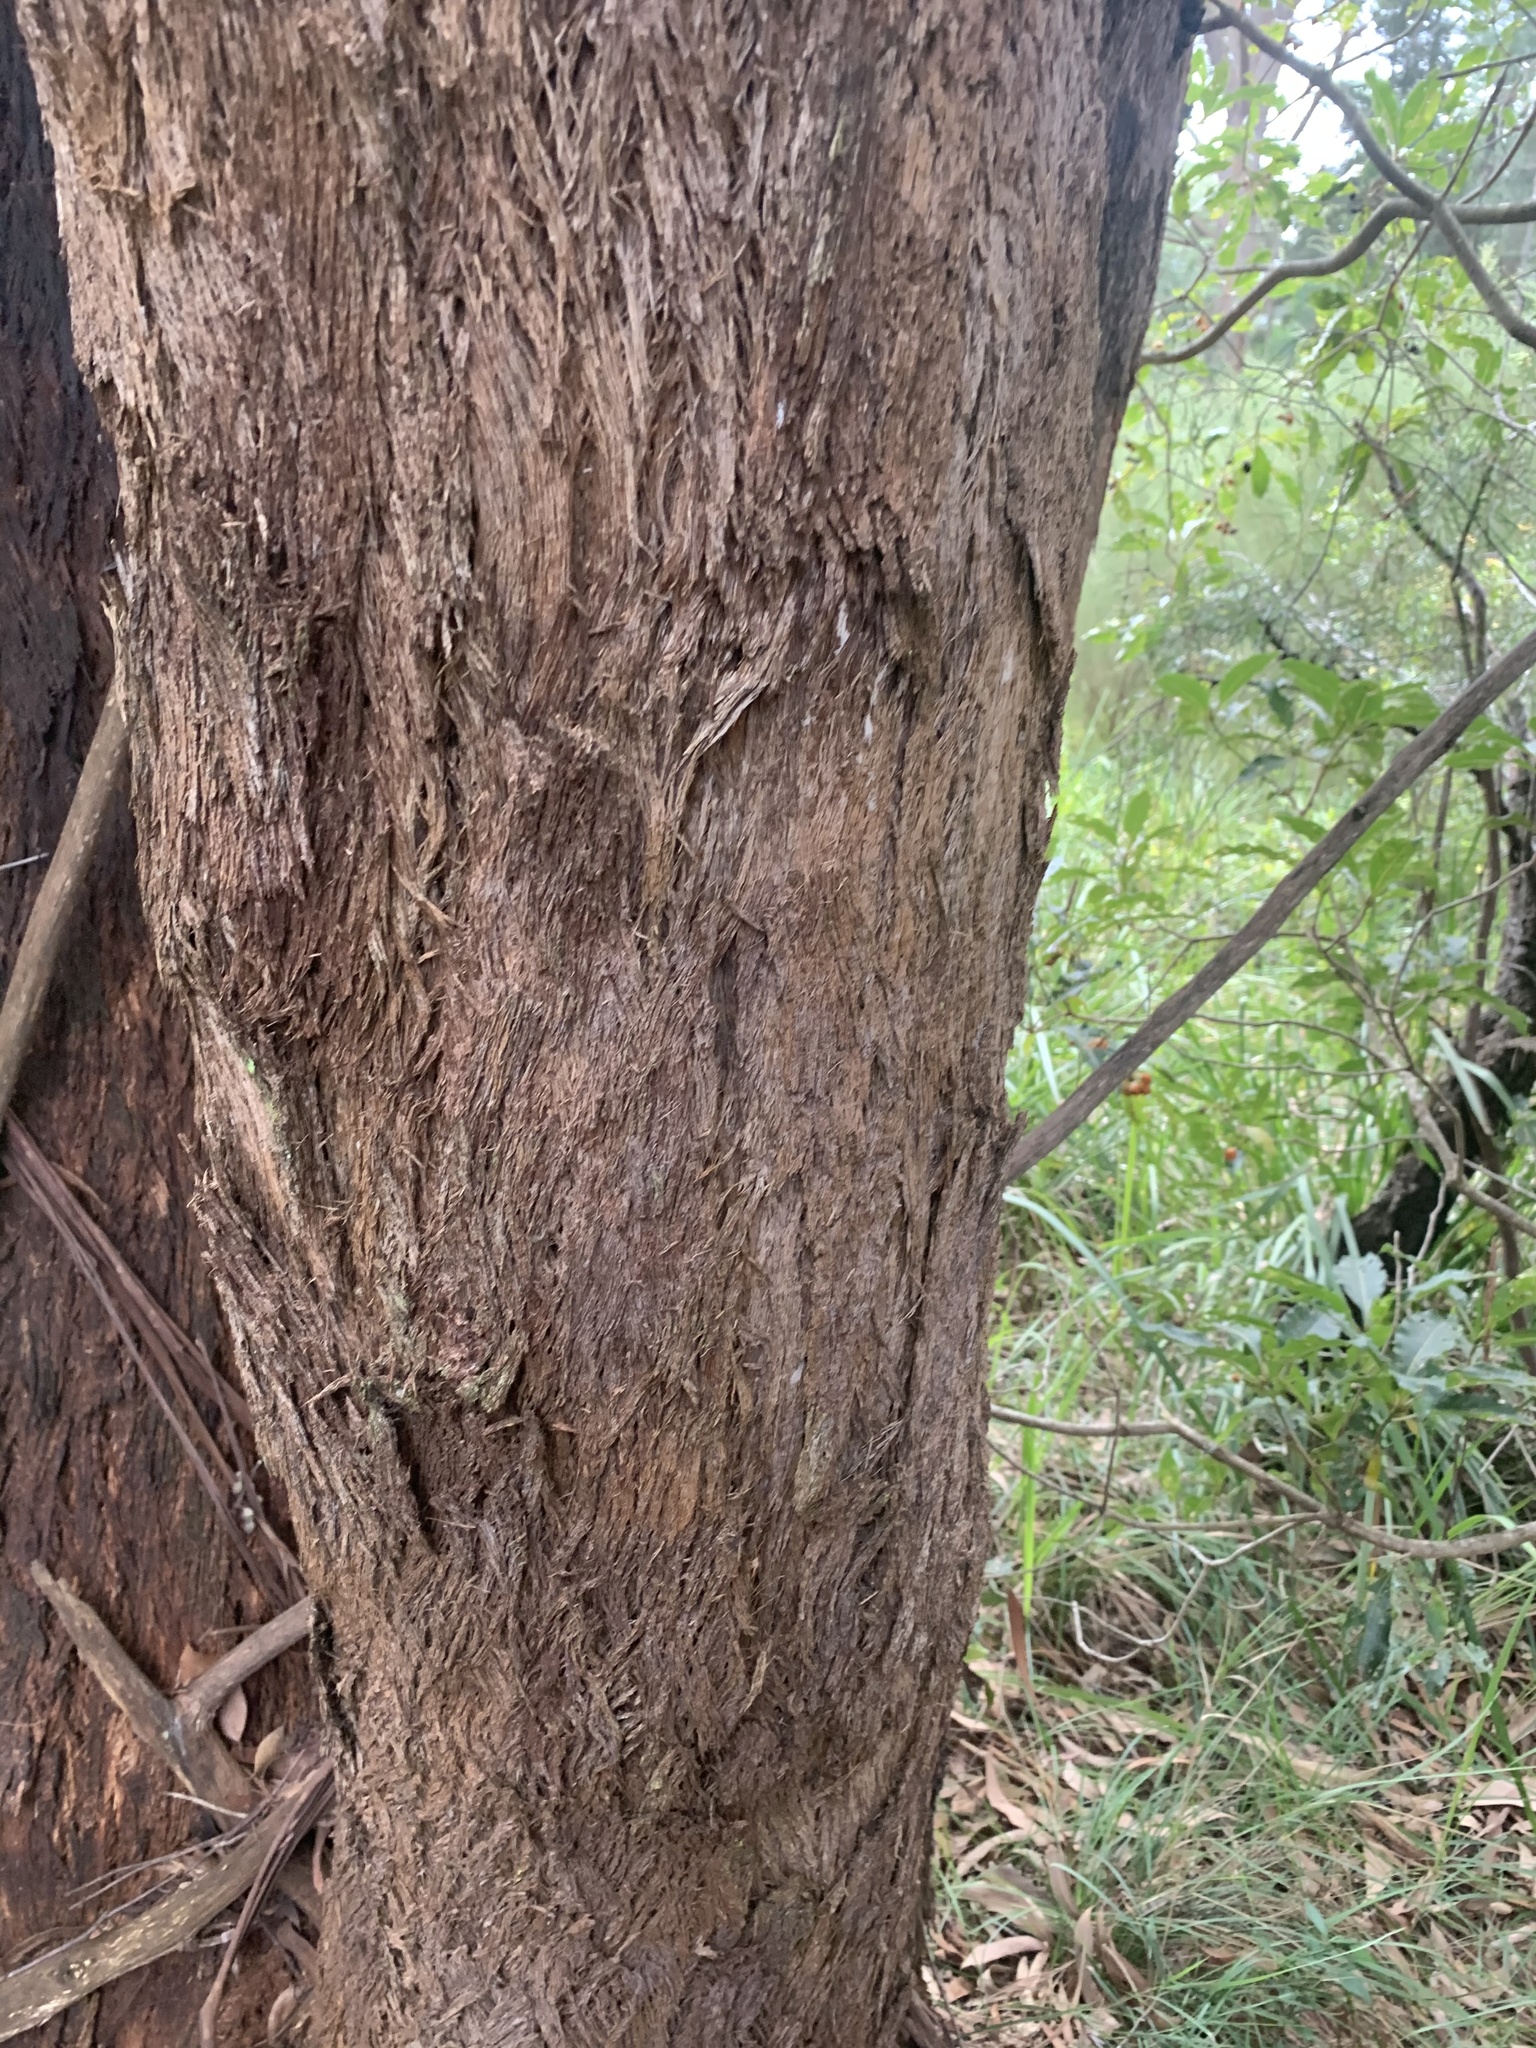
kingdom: Plantae
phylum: Tracheophyta
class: Magnoliopsida
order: Myrtales
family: Myrtaceae
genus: Eucalyptus
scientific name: Eucalyptus piperita
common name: Sydney peppermint
